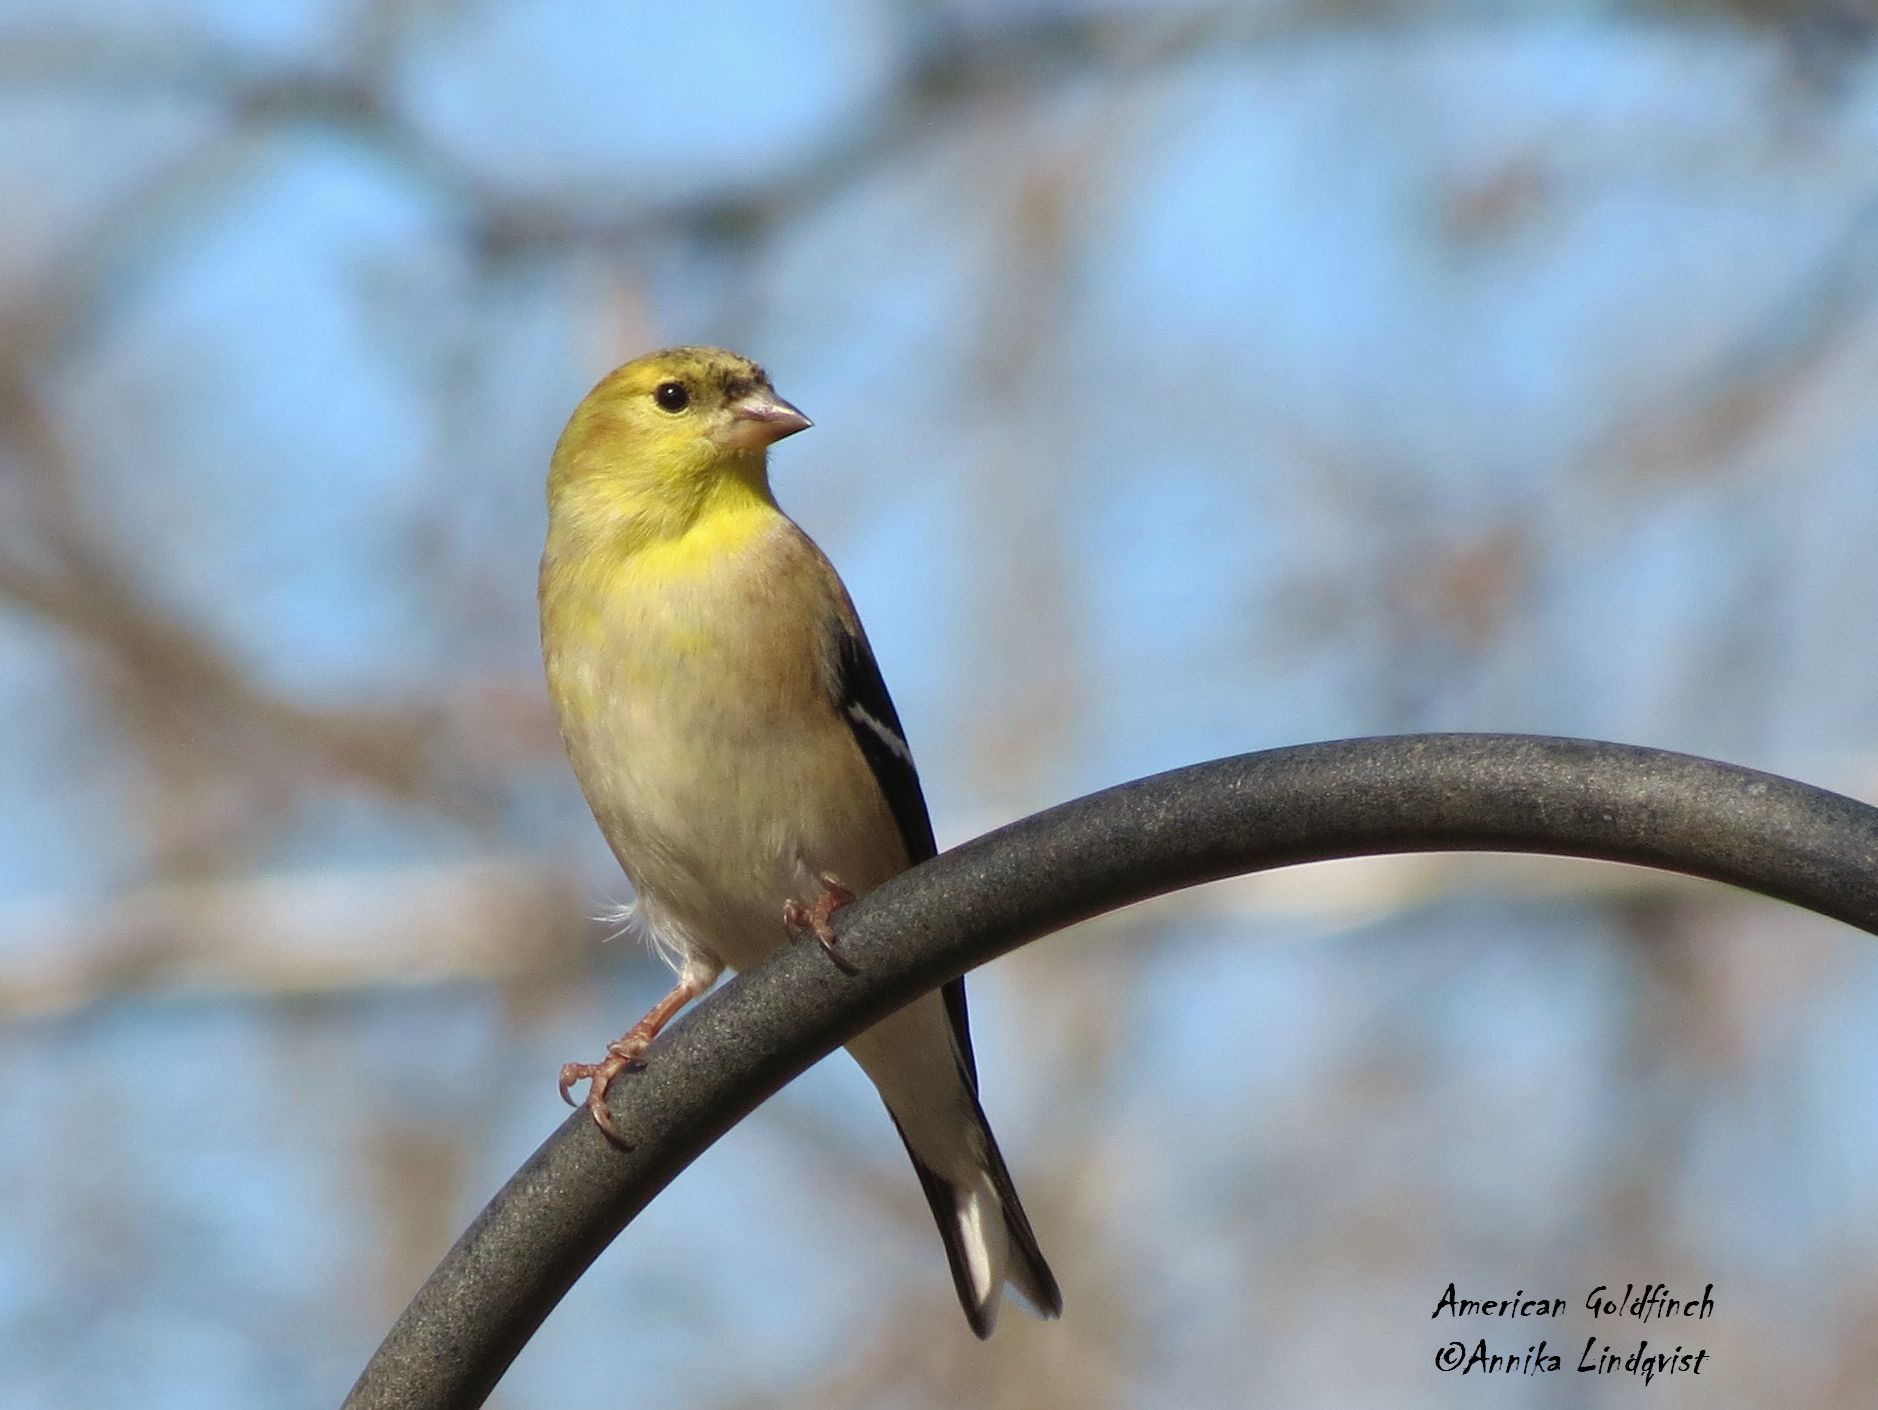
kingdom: Animalia
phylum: Chordata
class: Aves
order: Passeriformes
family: Fringillidae
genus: Spinus
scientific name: Spinus tristis
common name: American goldfinch
